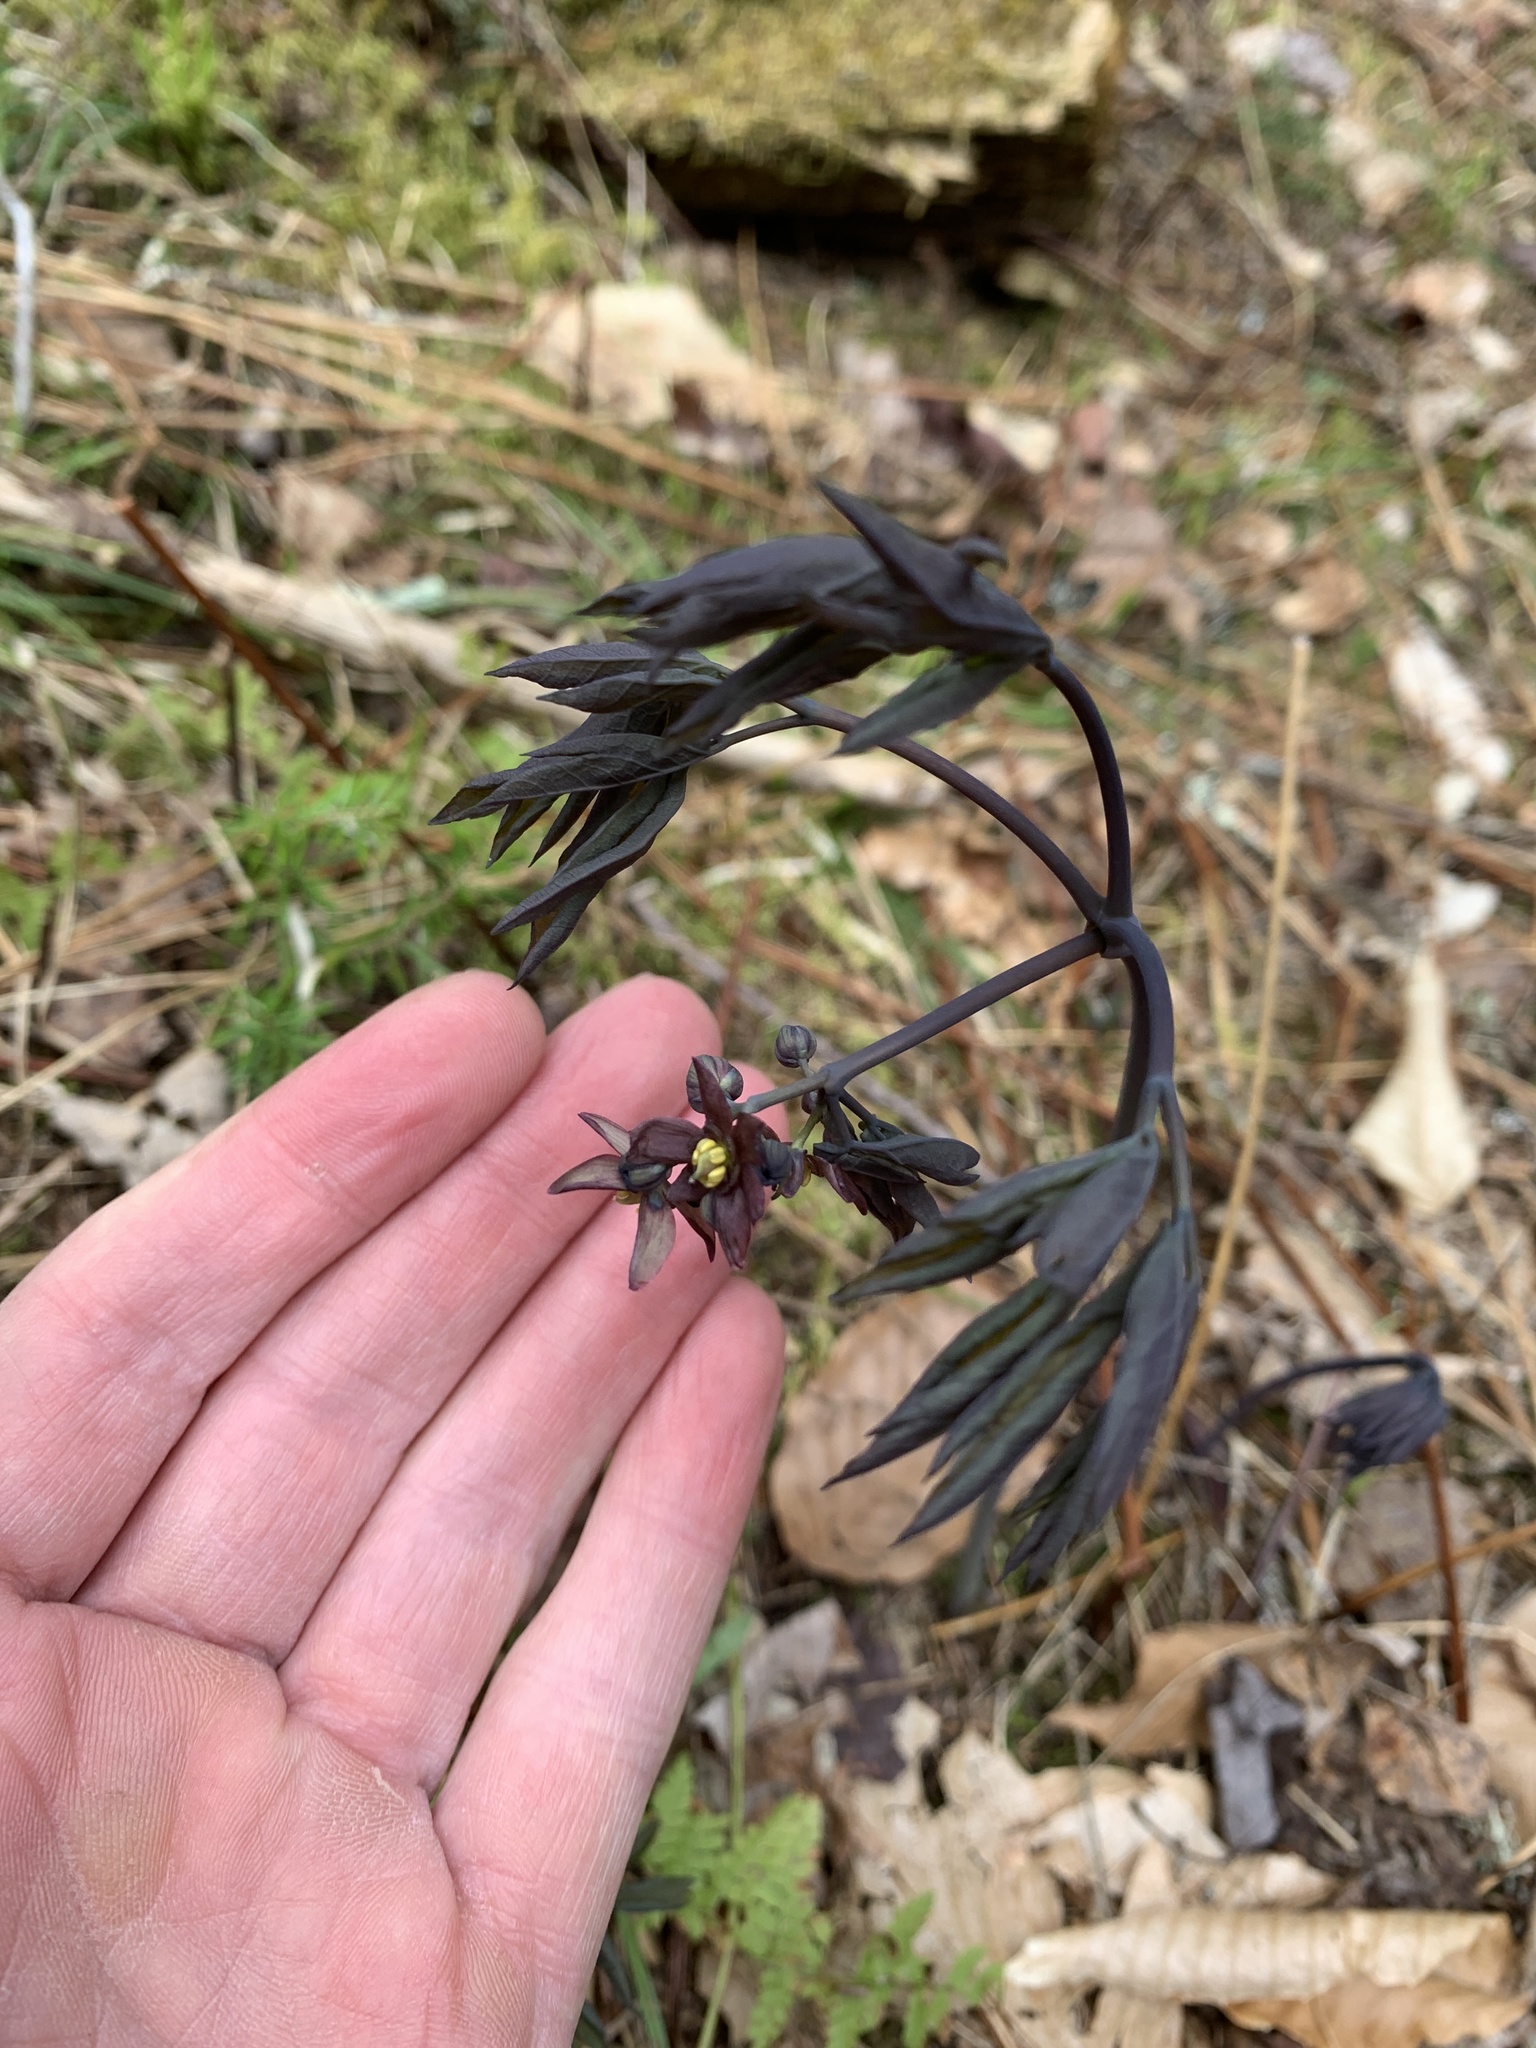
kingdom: Plantae
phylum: Tracheophyta
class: Magnoliopsida
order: Ranunculales
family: Berberidaceae
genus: Caulophyllum
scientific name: Caulophyllum giganteum
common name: Blue cohosh
